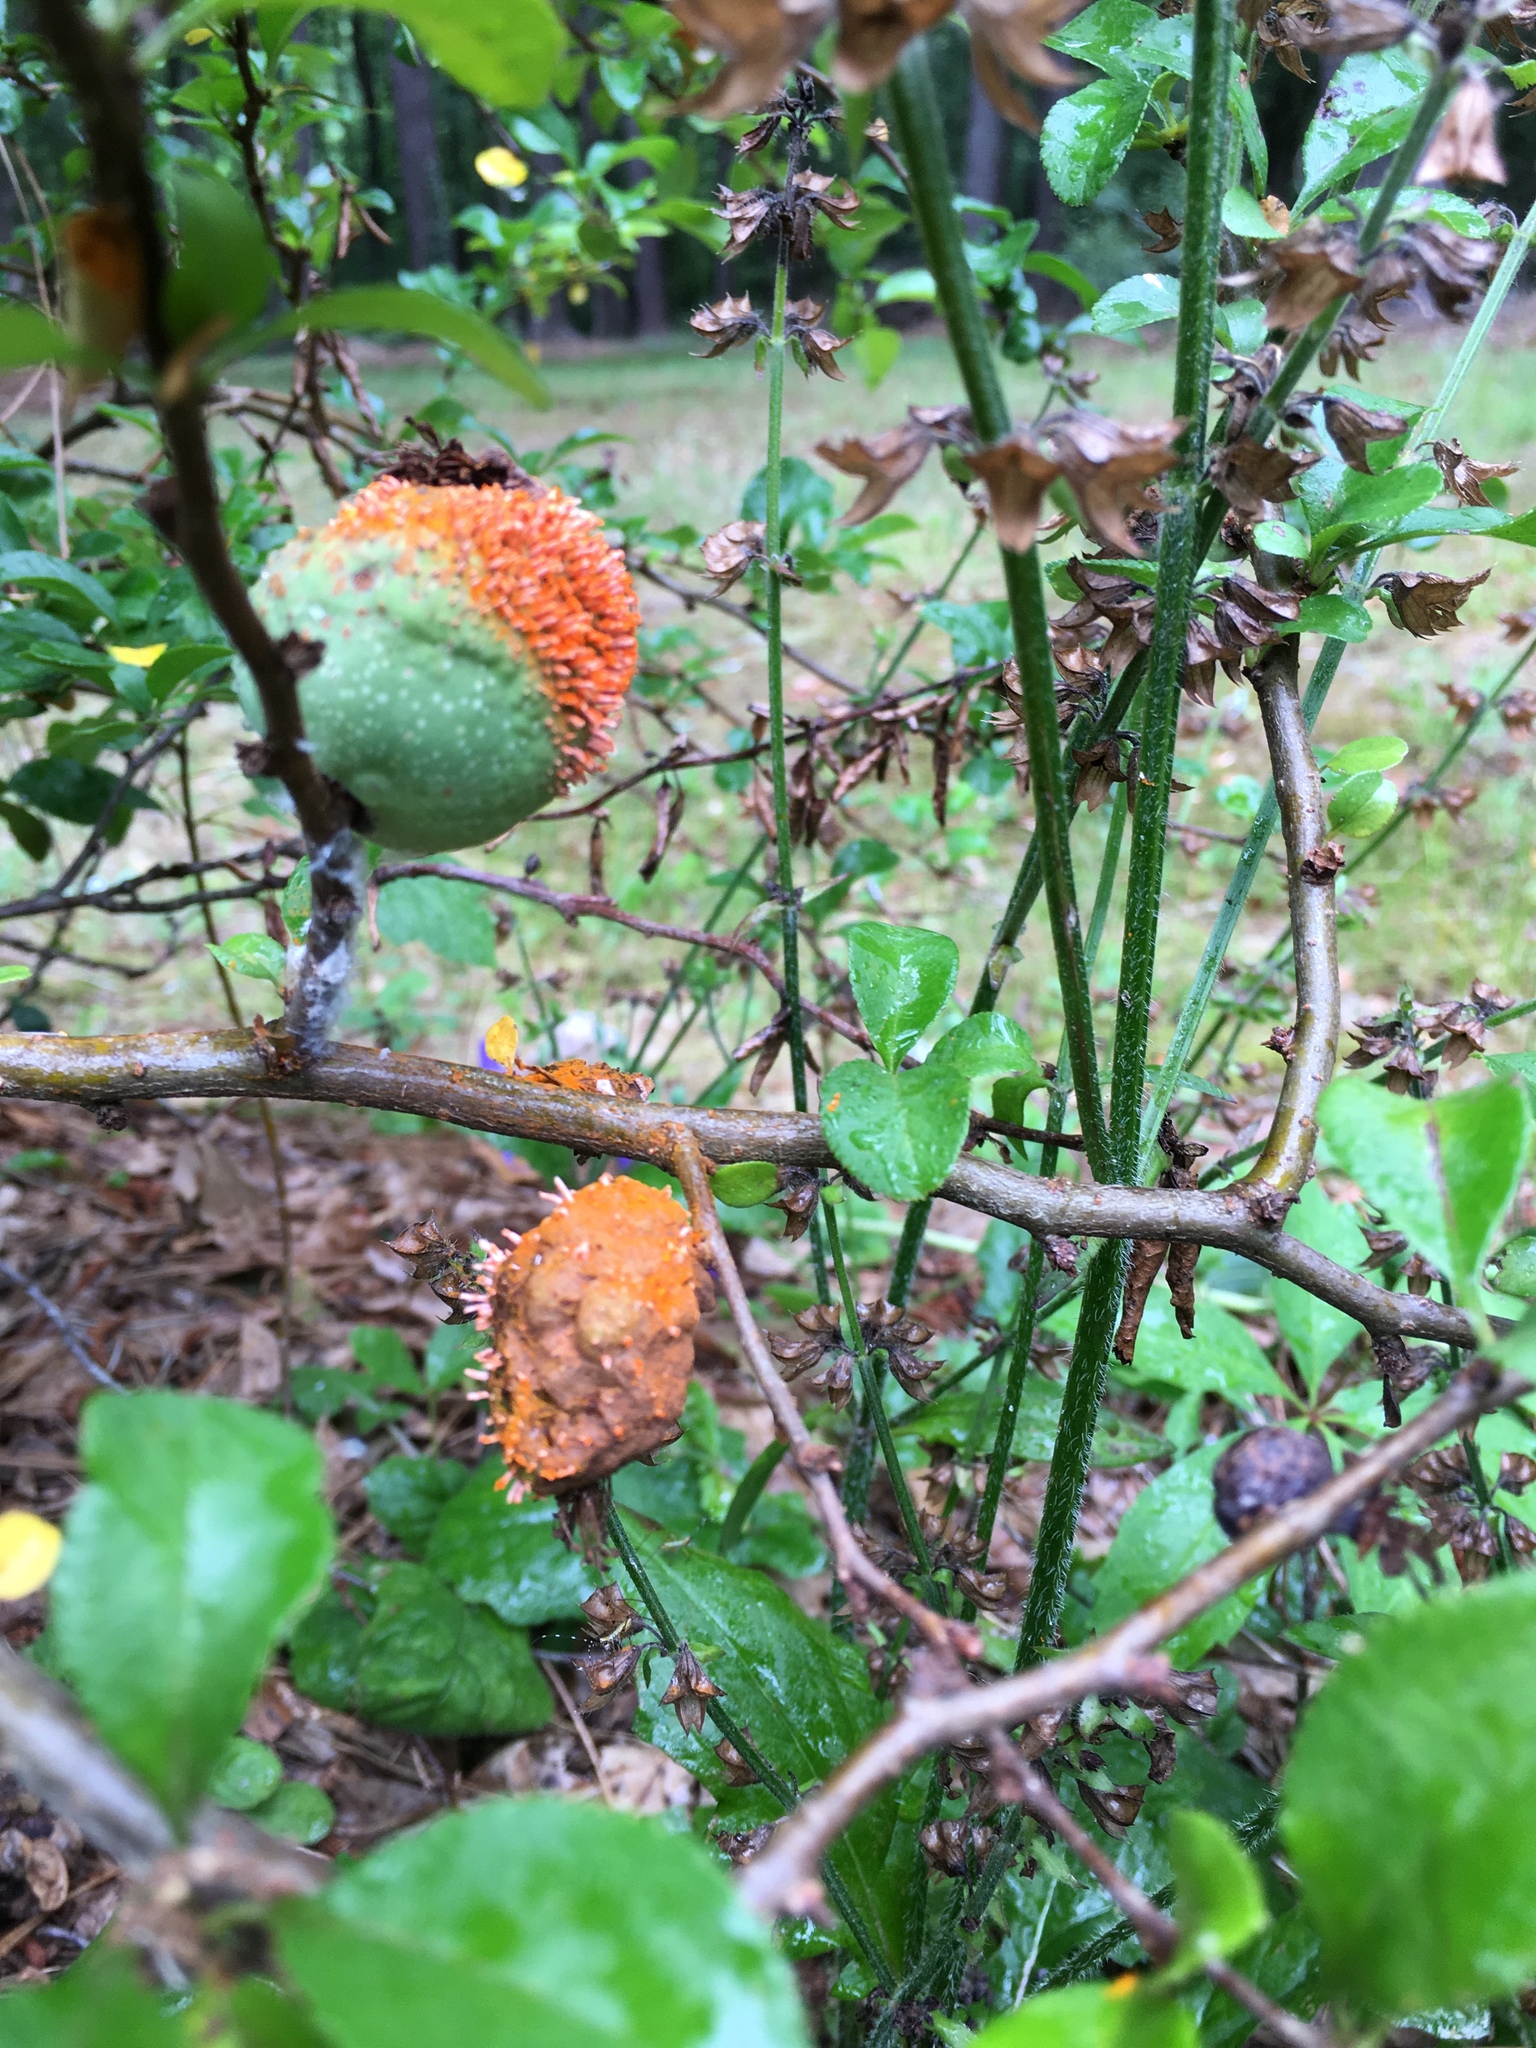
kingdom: Fungi
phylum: Basidiomycota
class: Pucciniomycetes
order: Pucciniales
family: Gymnosporangiaceae
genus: Gymnosporangium
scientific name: Gymnosporangium clavipes
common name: Quince rust
